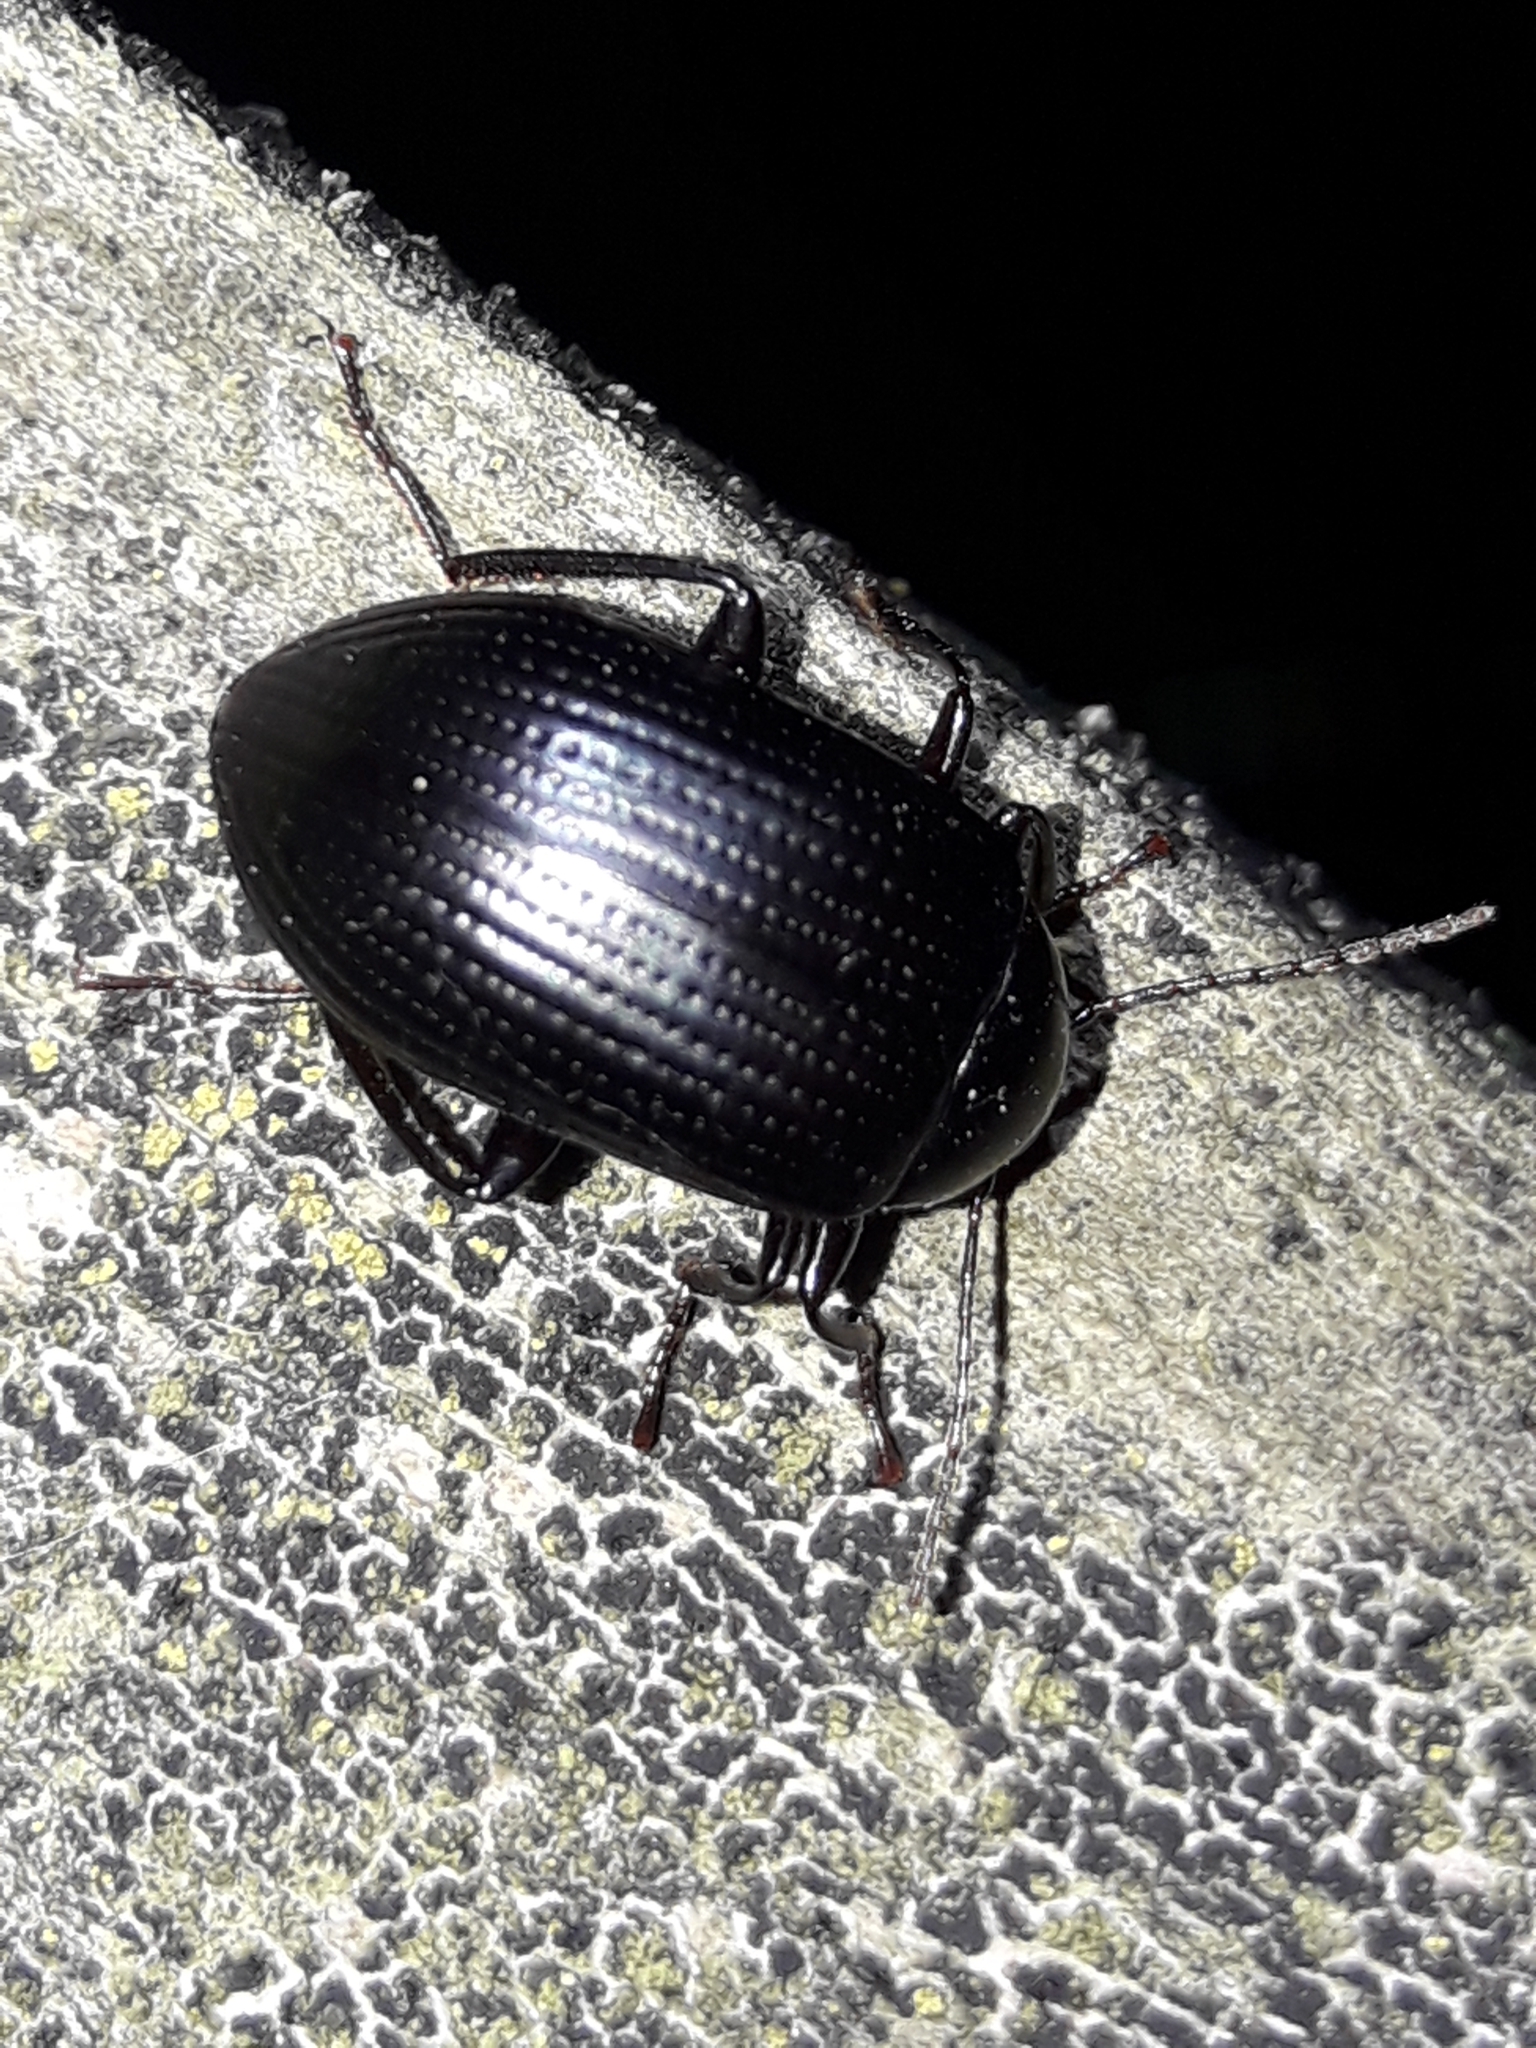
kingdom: Animalia
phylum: Arthropoda
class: Insecta
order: Coleoptera
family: Tenebrionidae
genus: Amarygmus
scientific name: Amarygmus
